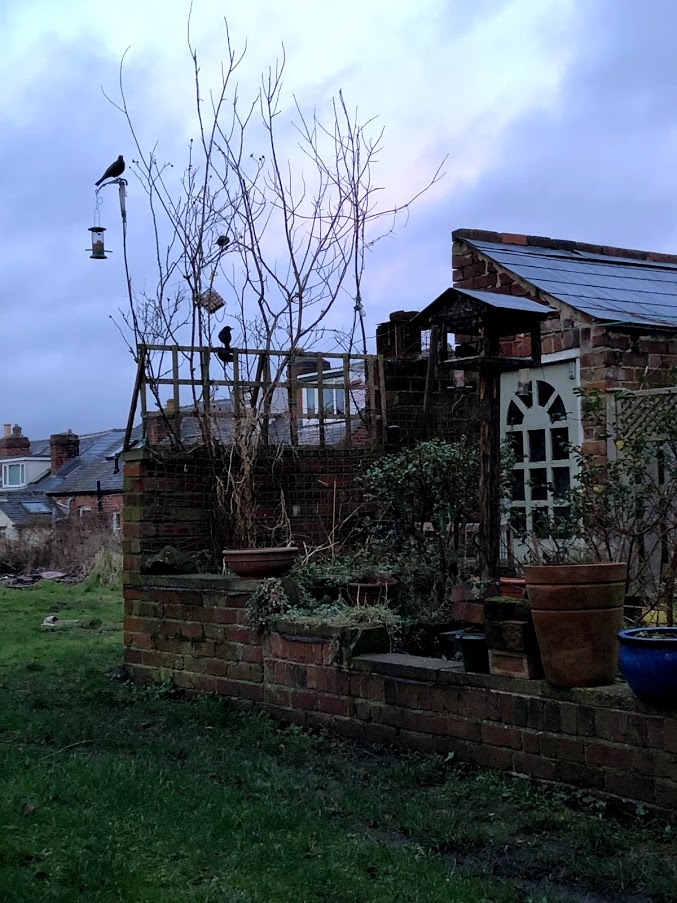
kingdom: Animalia
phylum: Chordata
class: Aves
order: Passeriformes
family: Turdidae
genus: Turdus
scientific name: Turdus merula
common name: Common blackbird
